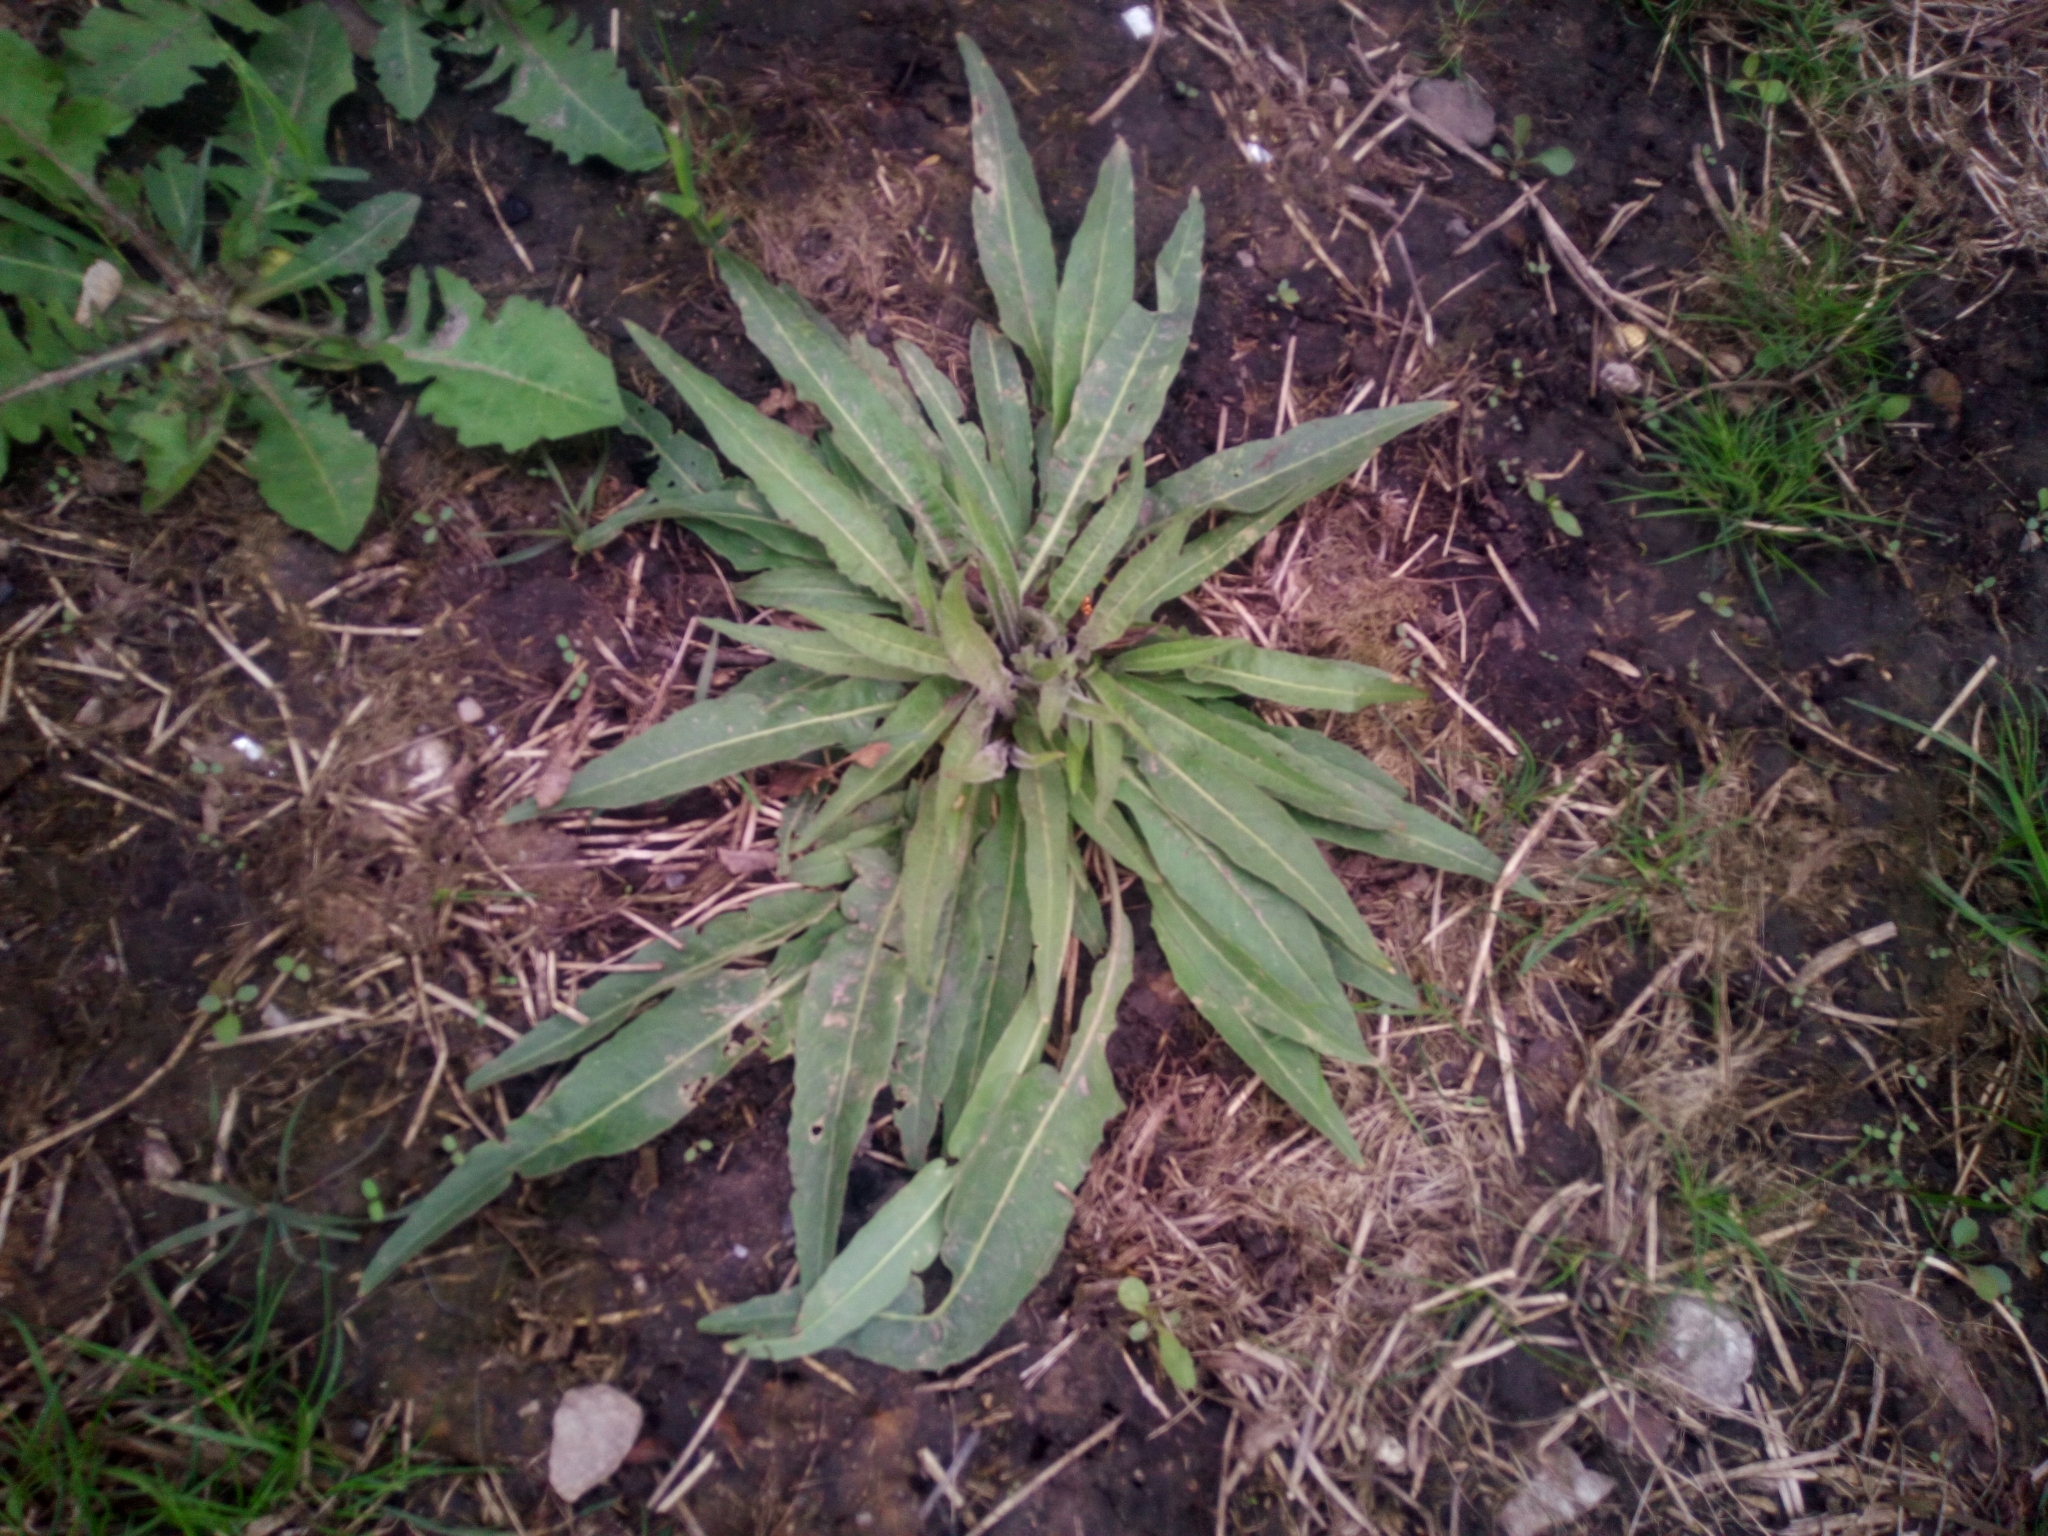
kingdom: Plantae
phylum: Tracheophyta
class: Magnoliopsida
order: Brassicales
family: Brassicaceae
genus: Bunias
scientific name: Bunias orientalis
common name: Warty-cabbage
